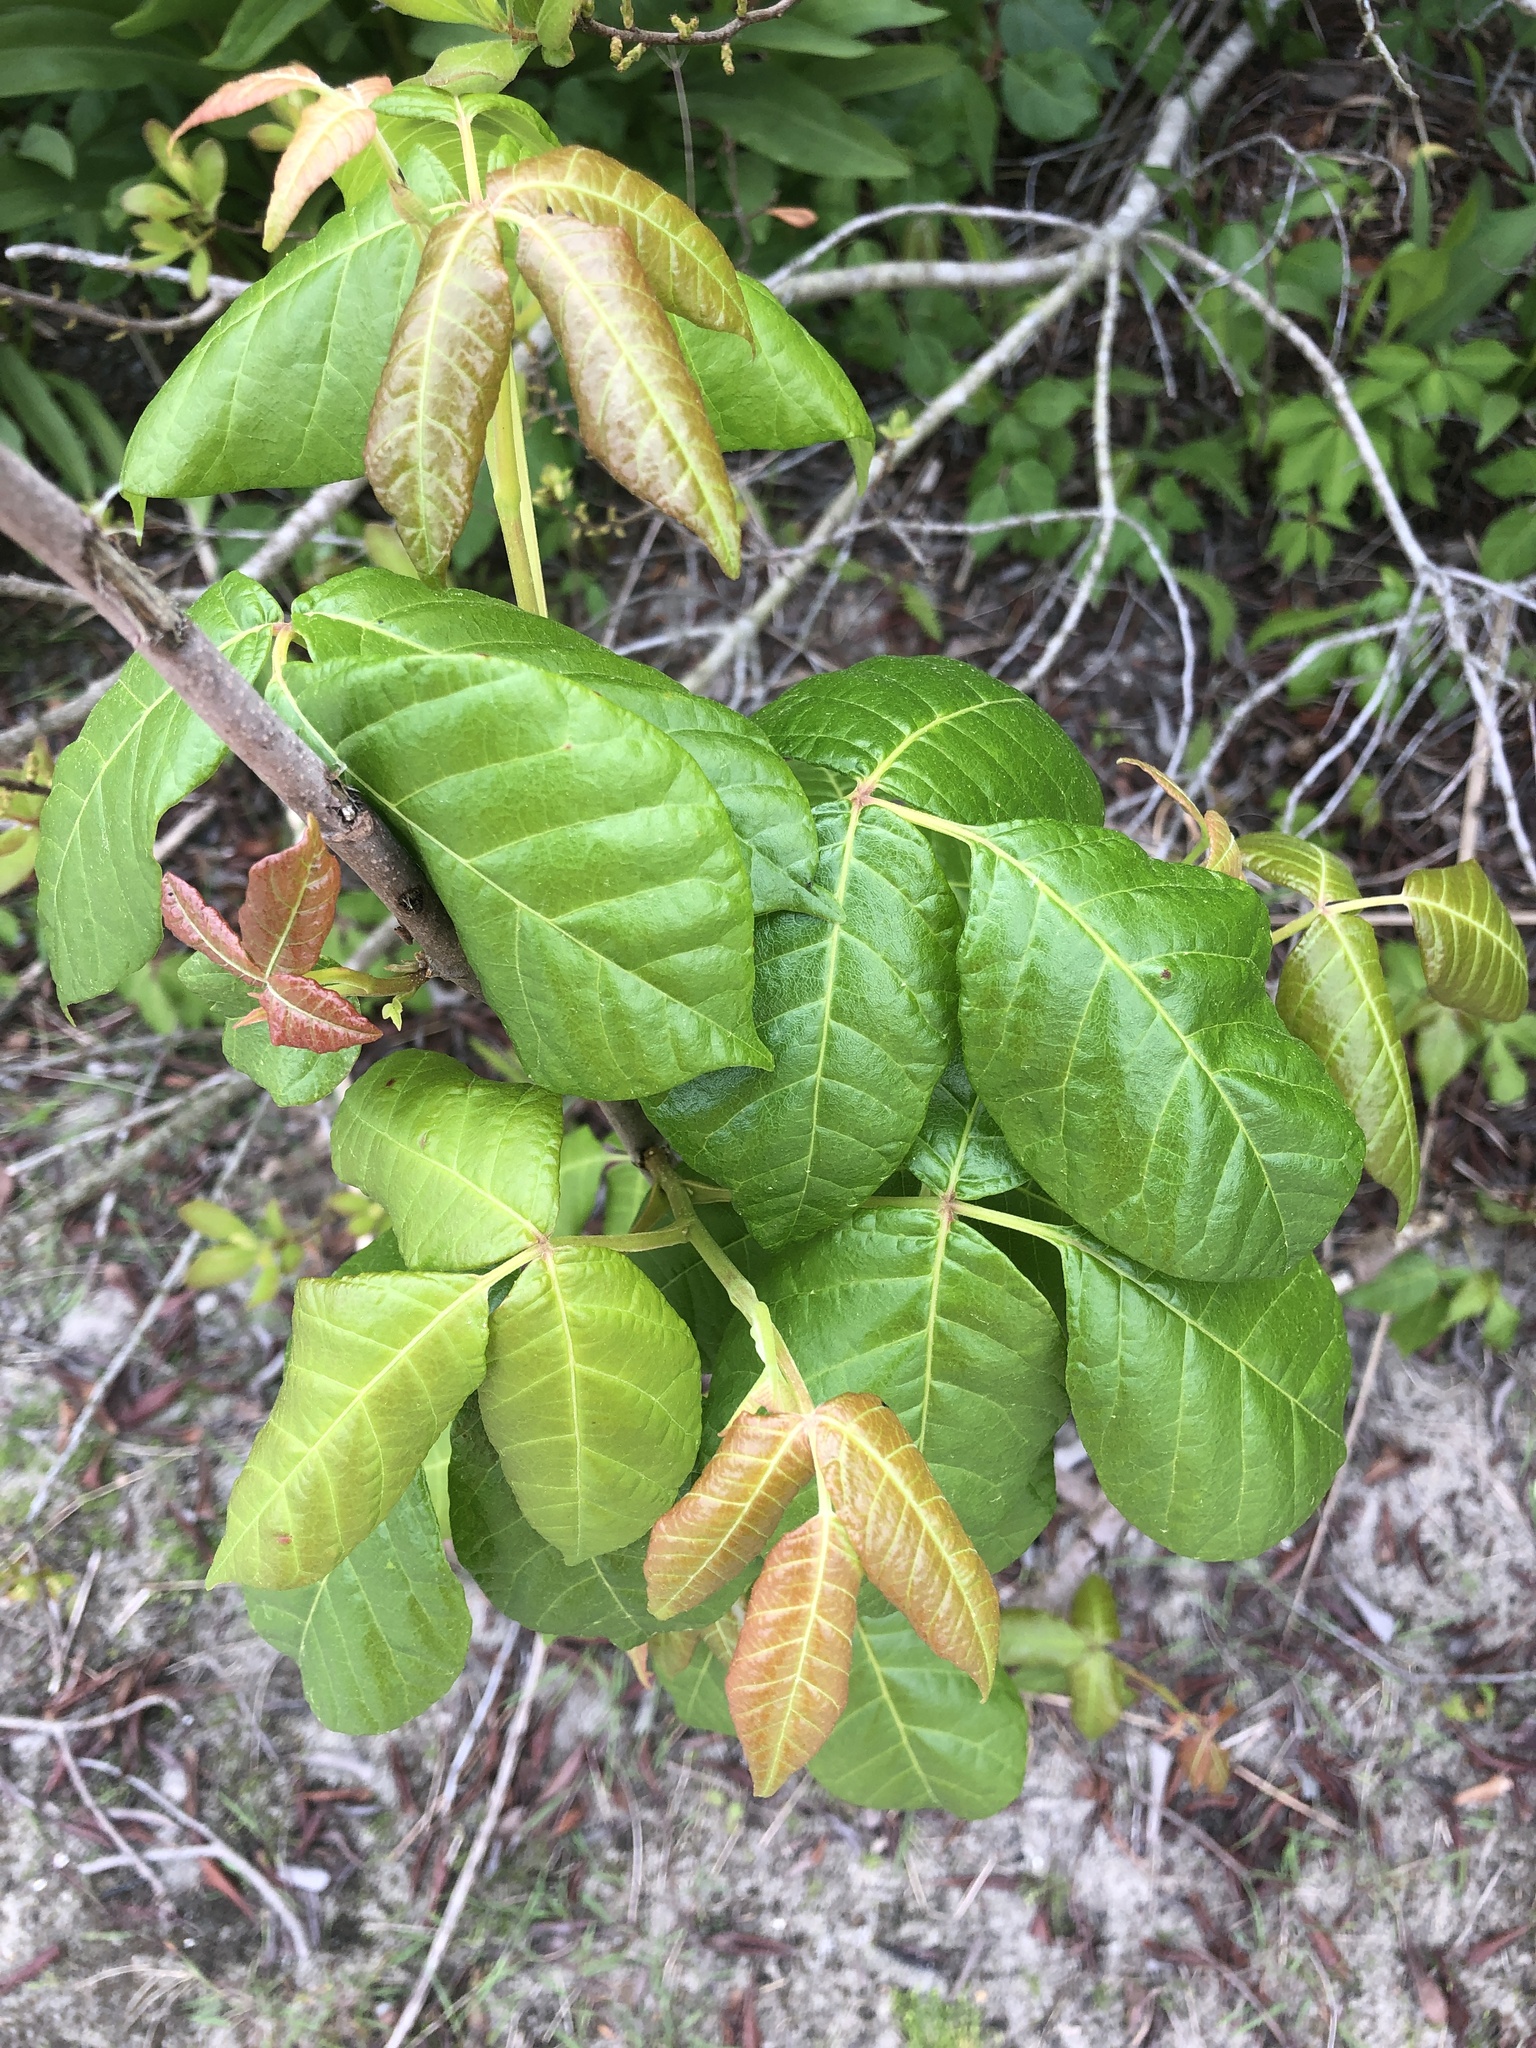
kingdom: Plantae
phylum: Tracheophyta
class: Magnoliopsida
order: Sapindales
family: Anacardiaceae
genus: Toxicodendron
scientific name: Toxicodendron radicans
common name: Poison ivy
